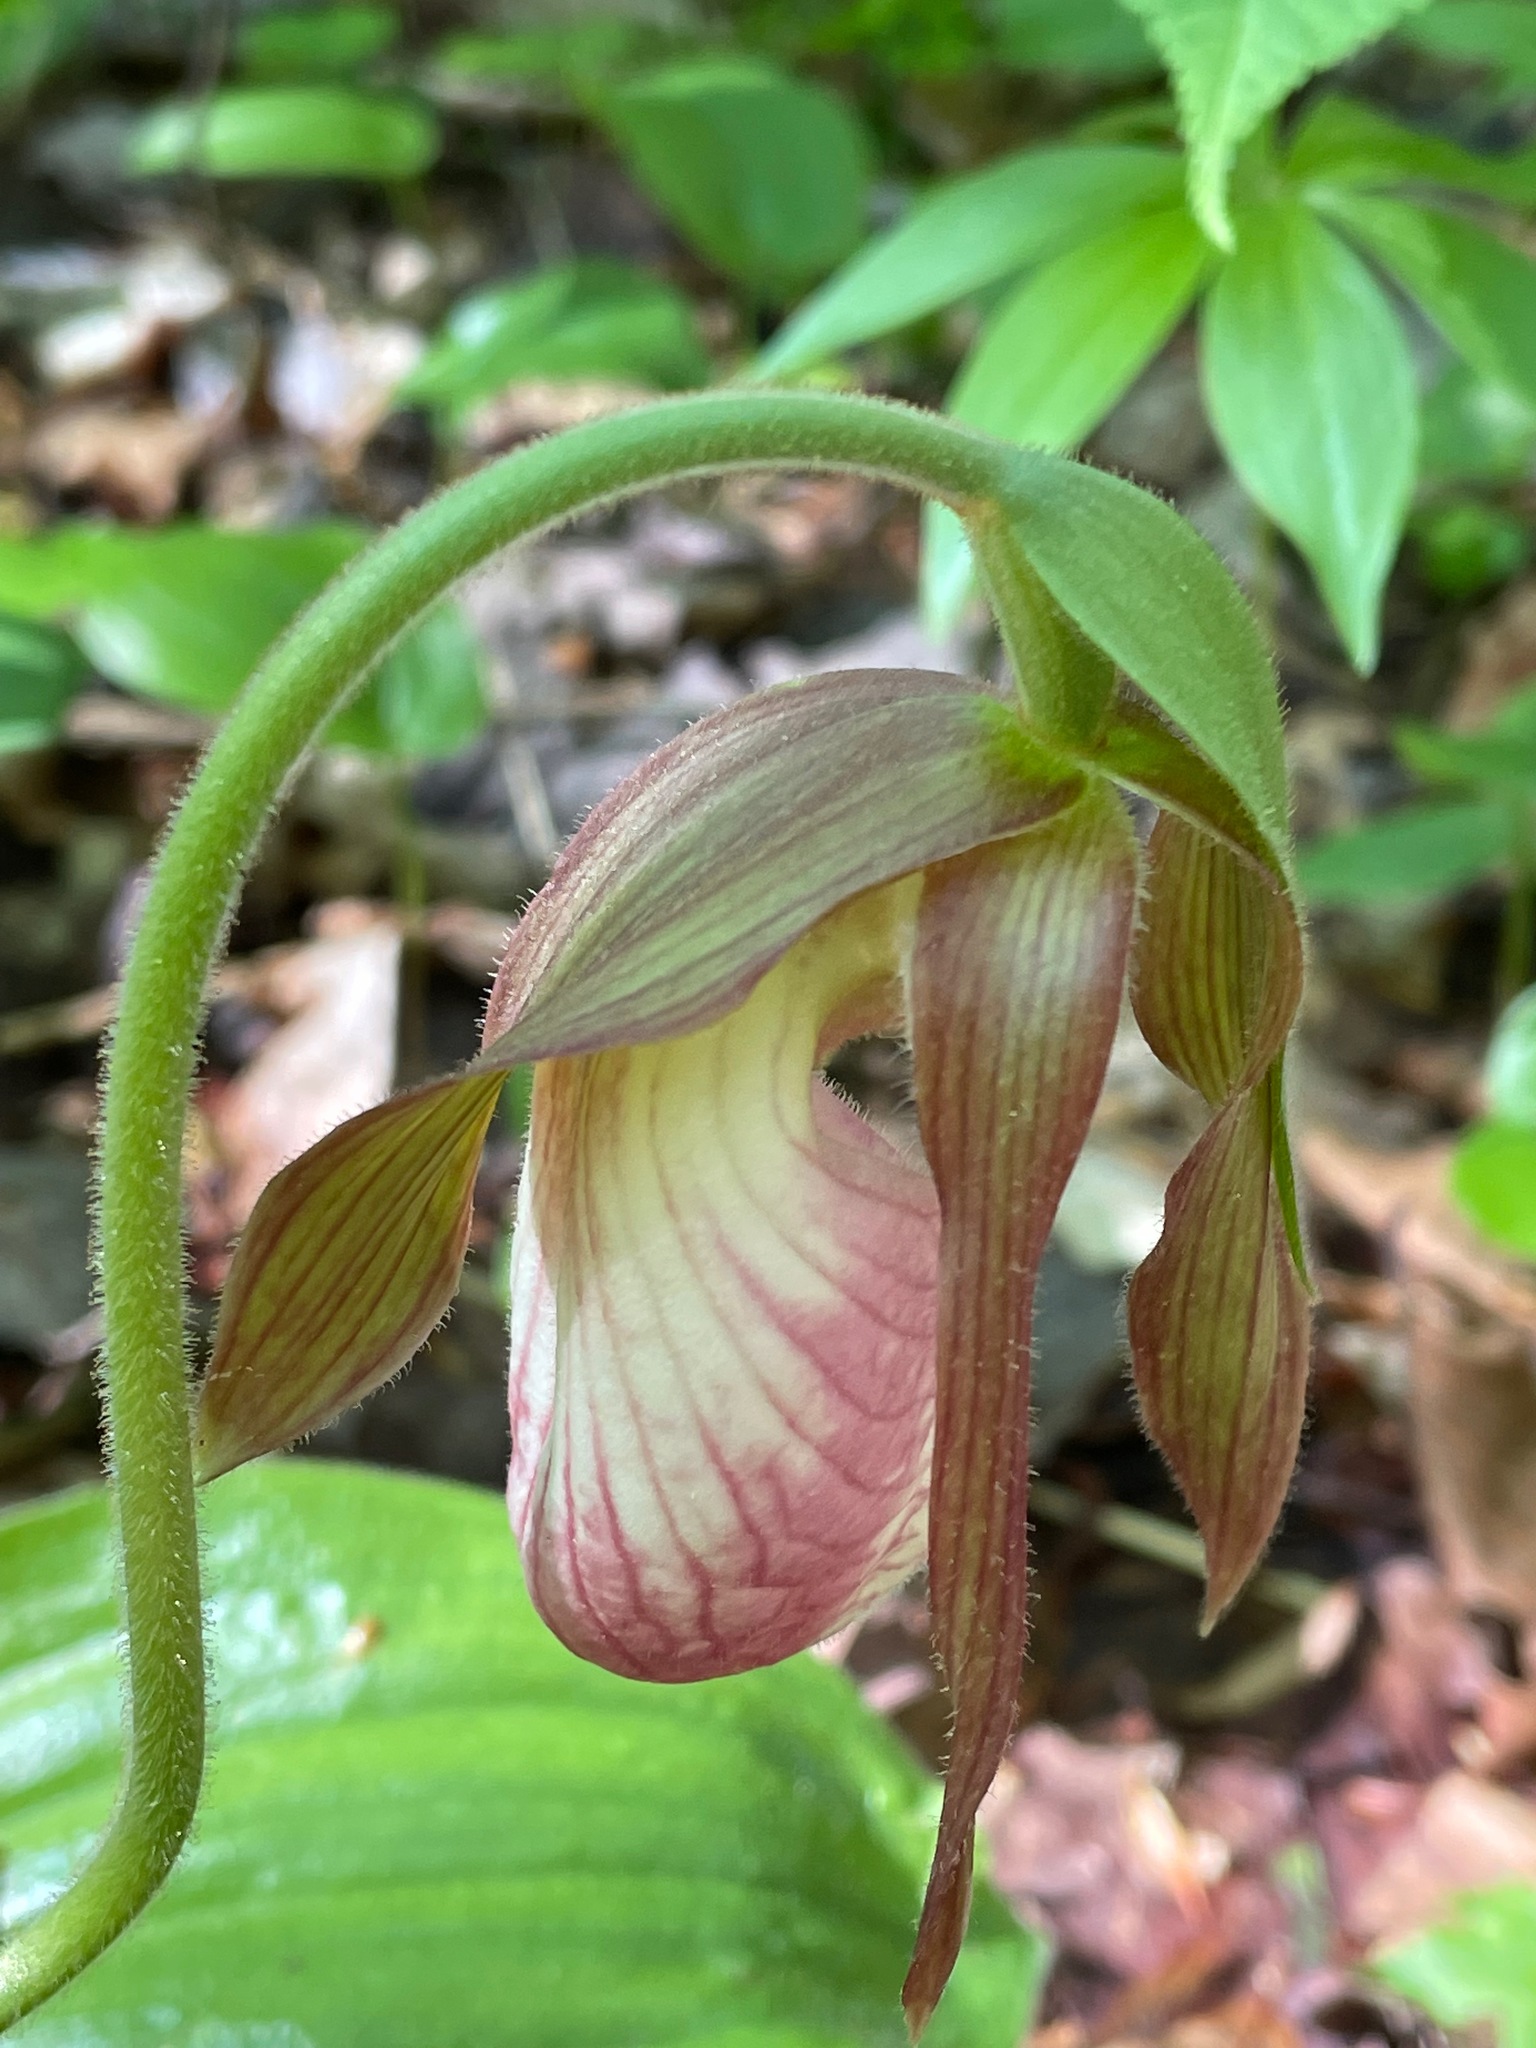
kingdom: Plantae
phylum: Tracheophyta
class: Liliopsida
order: Asparagales
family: Orchidaceae
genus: Cypripedium
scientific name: Cypripedium acaule
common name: Pink lady's-slipper
